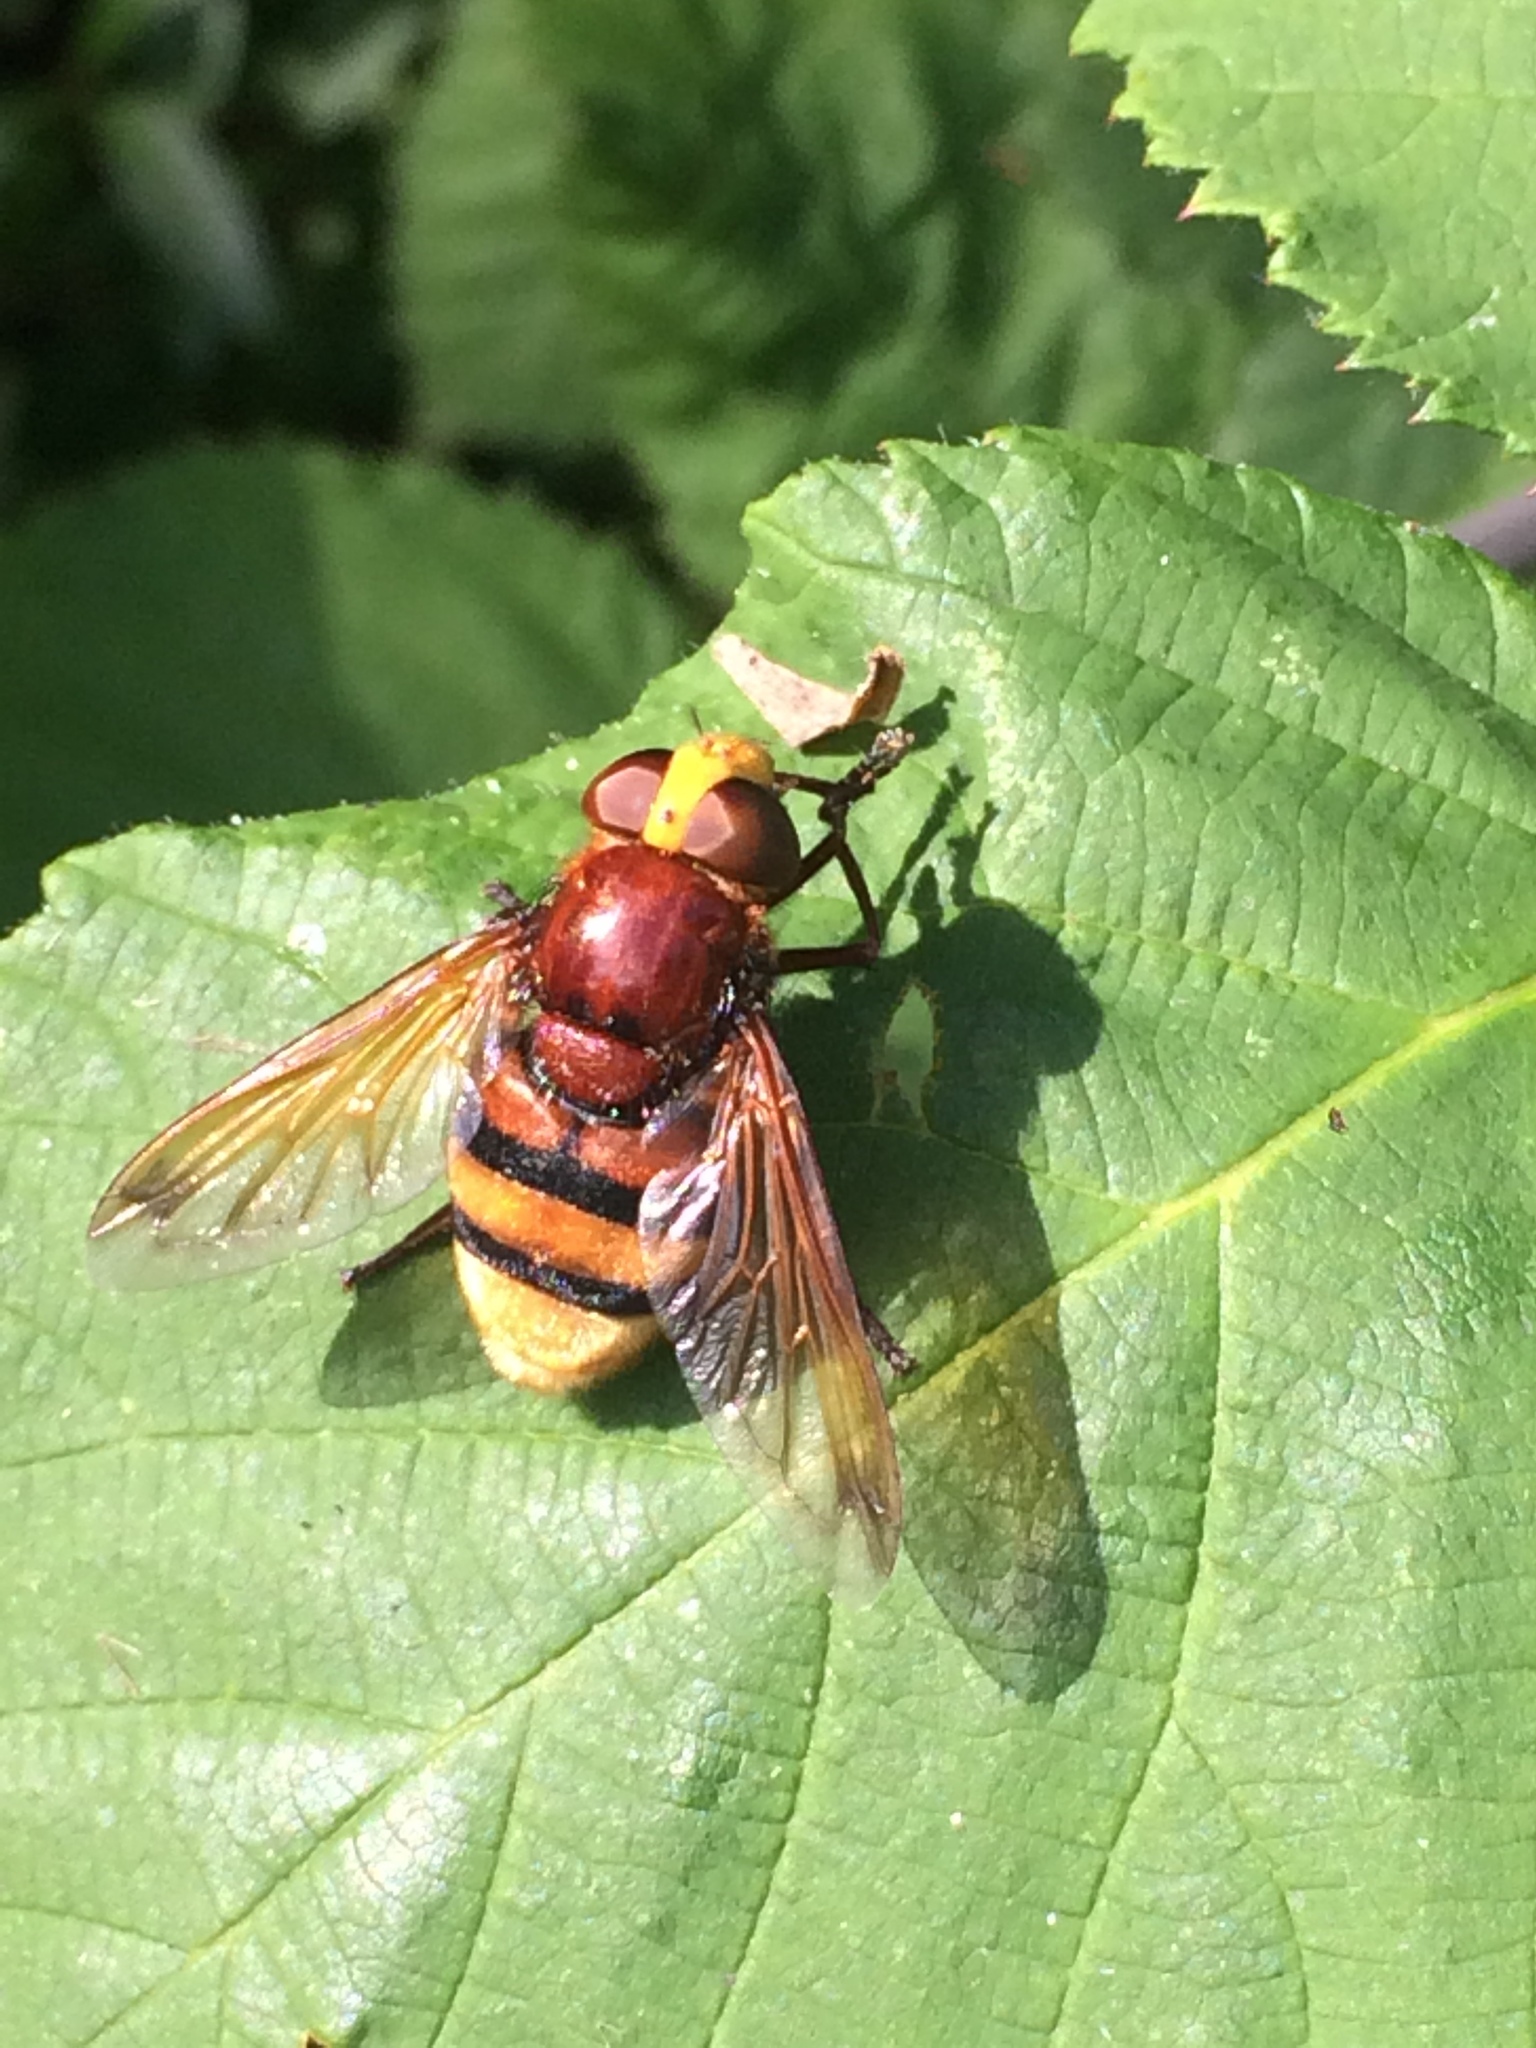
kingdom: Animalia
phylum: Arthropoda
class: Insecta
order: Diptera
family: Syrphidae
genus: Volucella
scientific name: Volucella zonaria
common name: Hornet hoverfly
